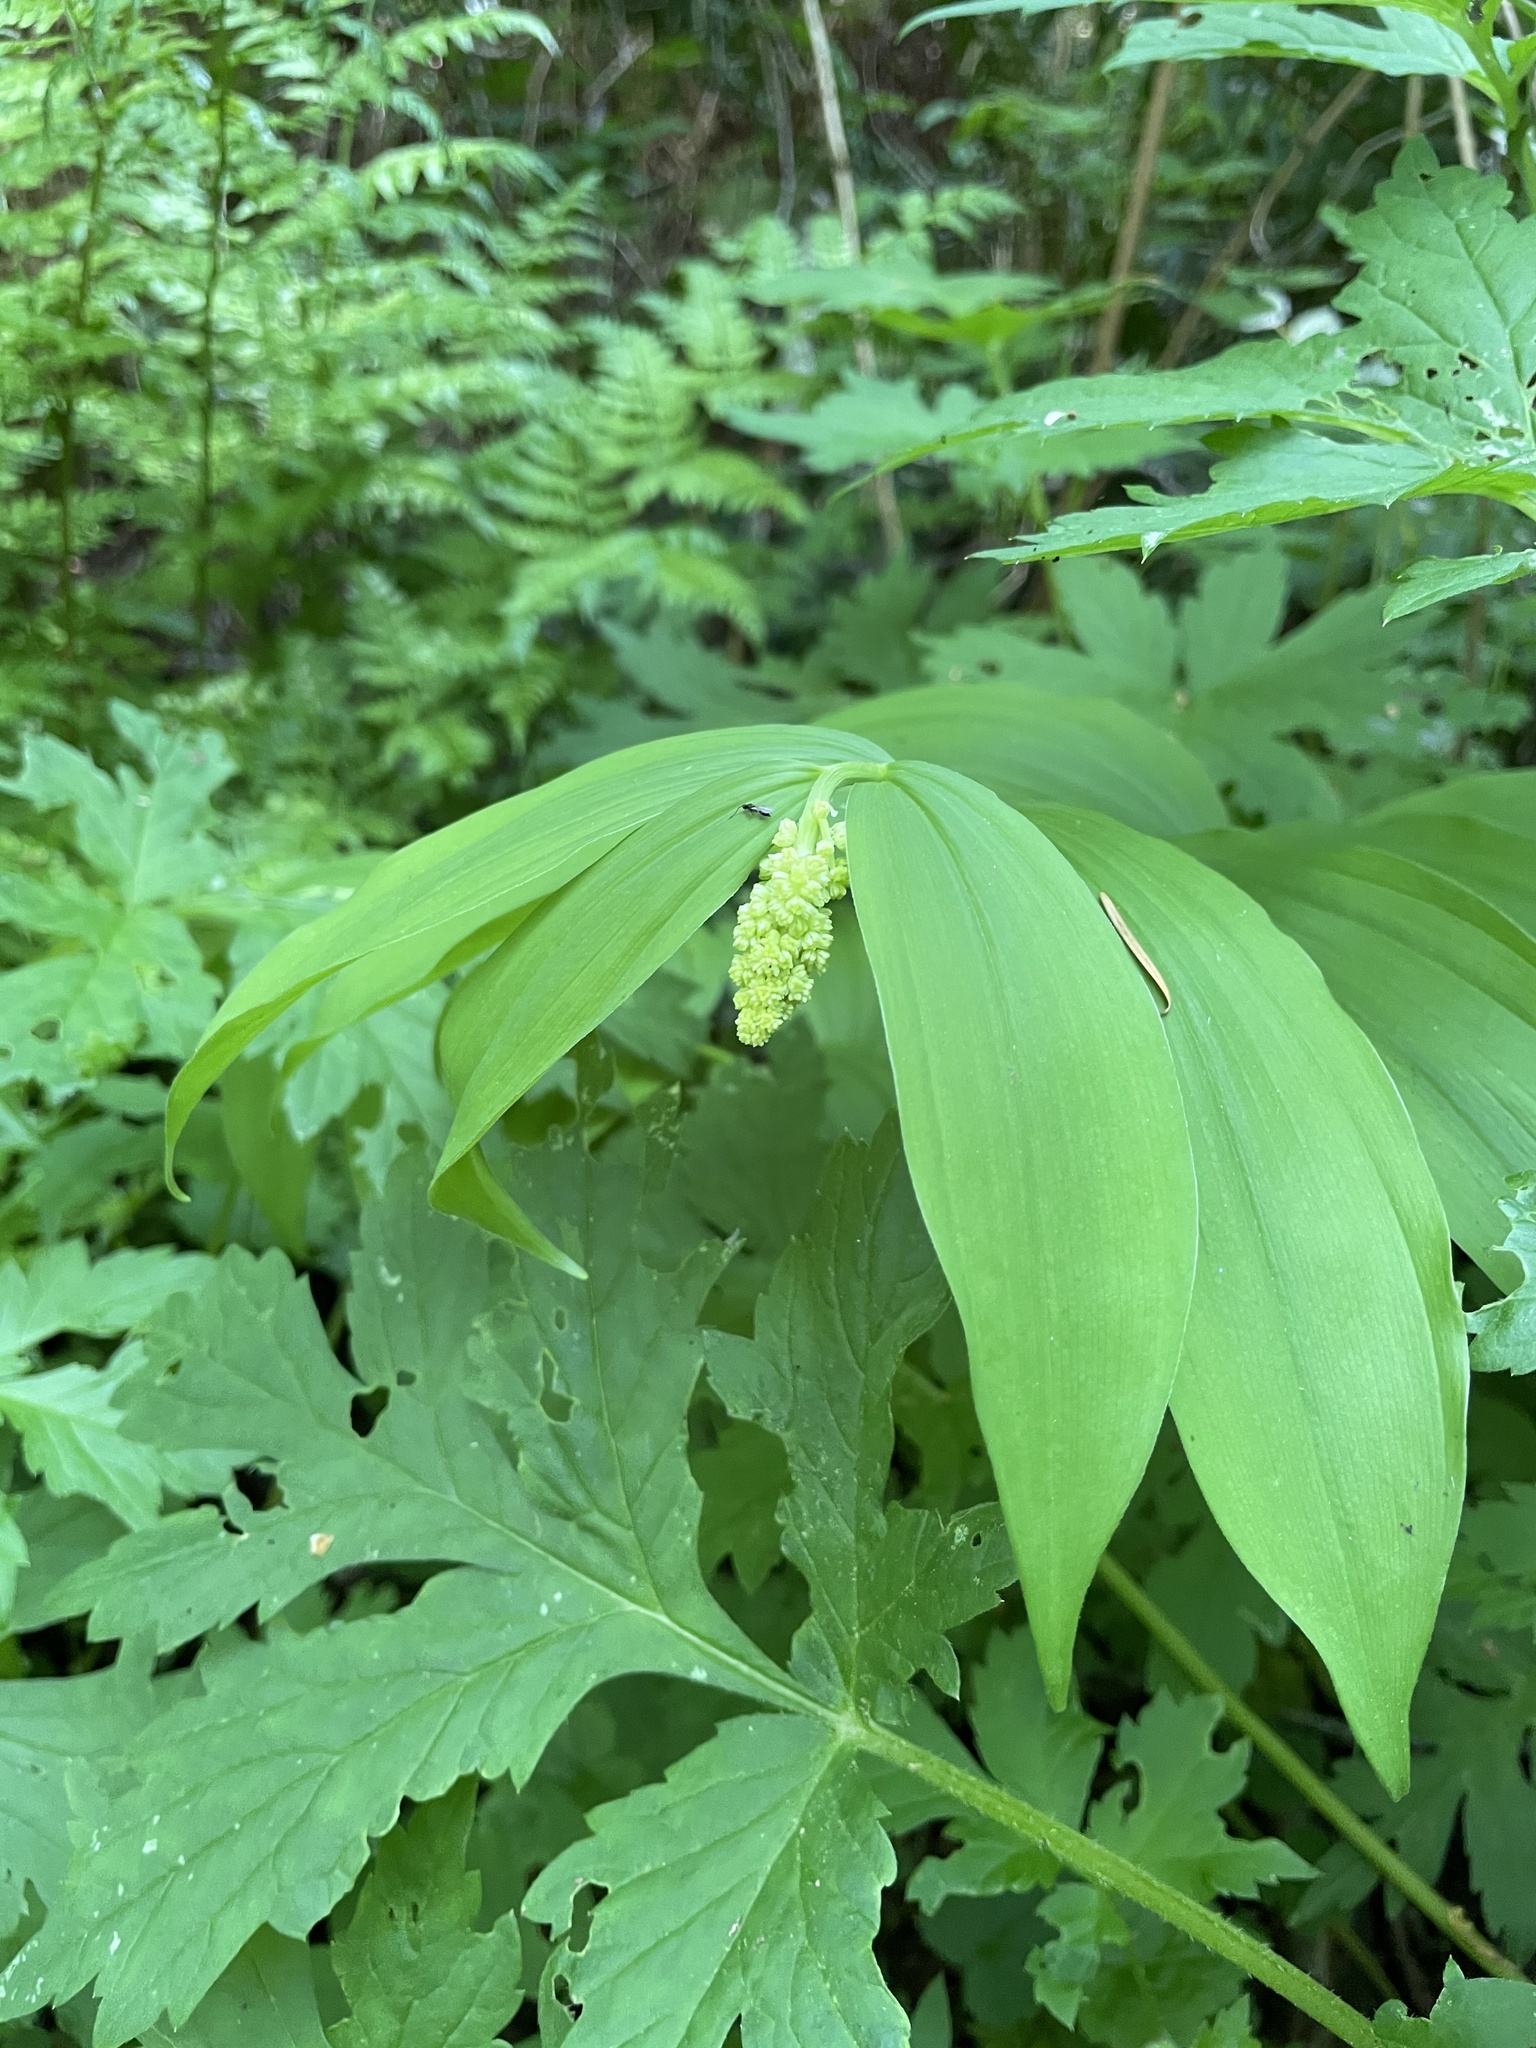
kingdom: Plantae
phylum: Tracheophyta
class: Liliopsida
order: Asparagales
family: Asparagaceae
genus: Maianthemum
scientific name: Maianthemum racemosum
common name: False spikenard
